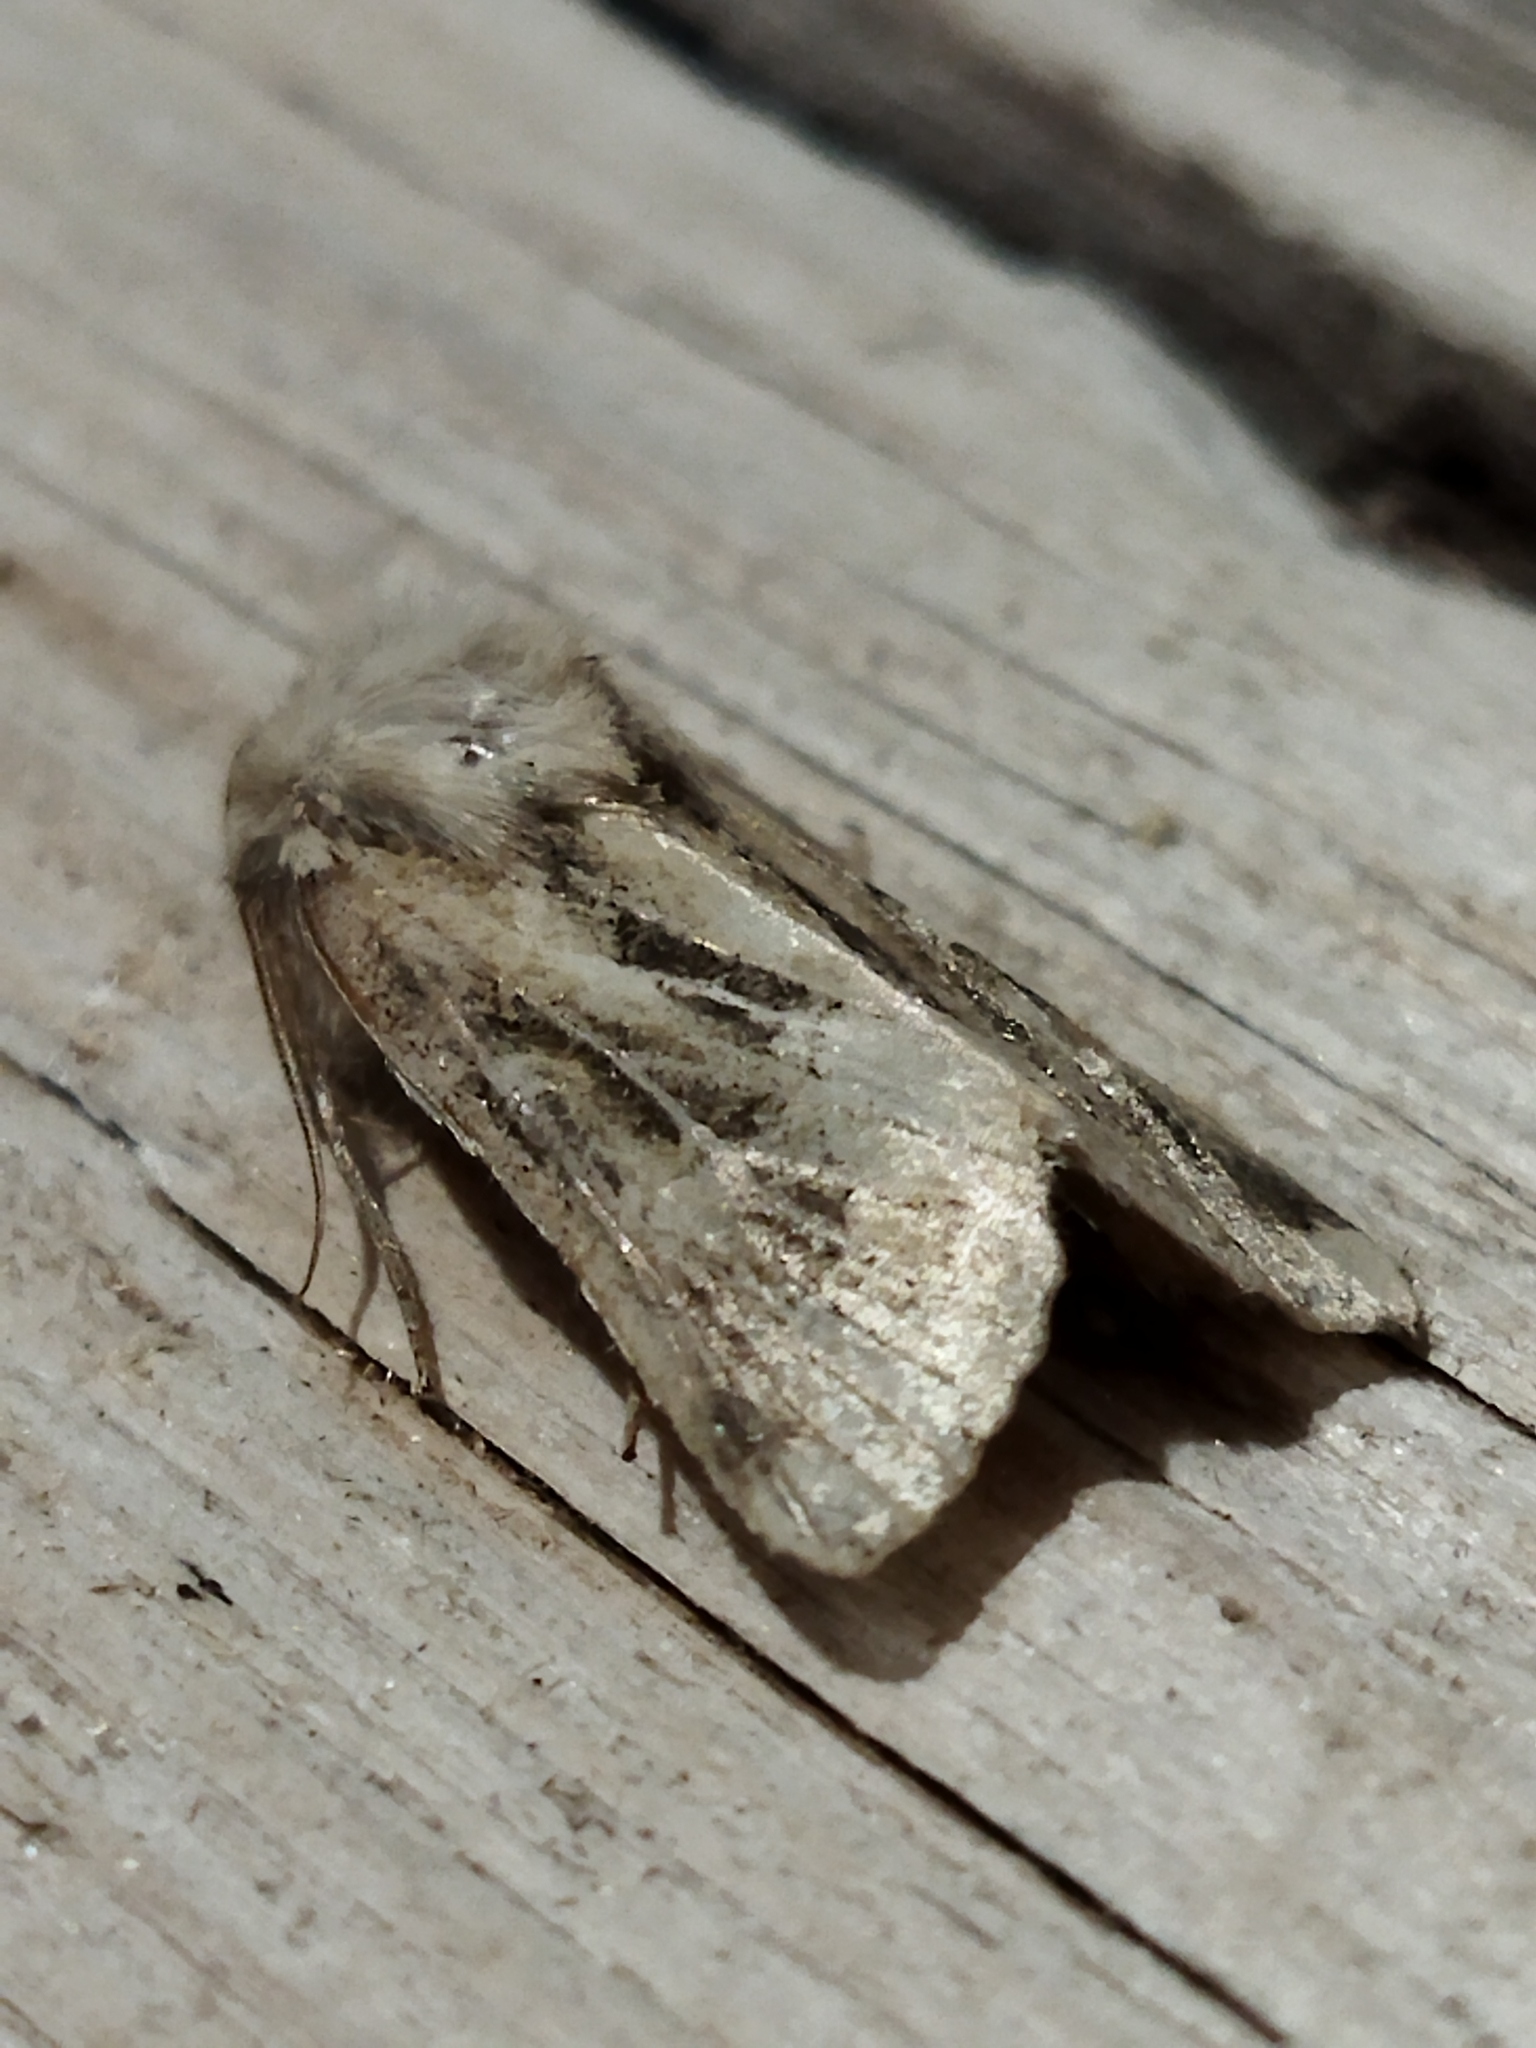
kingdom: Animalia
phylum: Arthropoda
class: Insecta
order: Lepidoptera
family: Noctuidae
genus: Luperina
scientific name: Luperina dumerilii
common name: Dumeril's rustic
